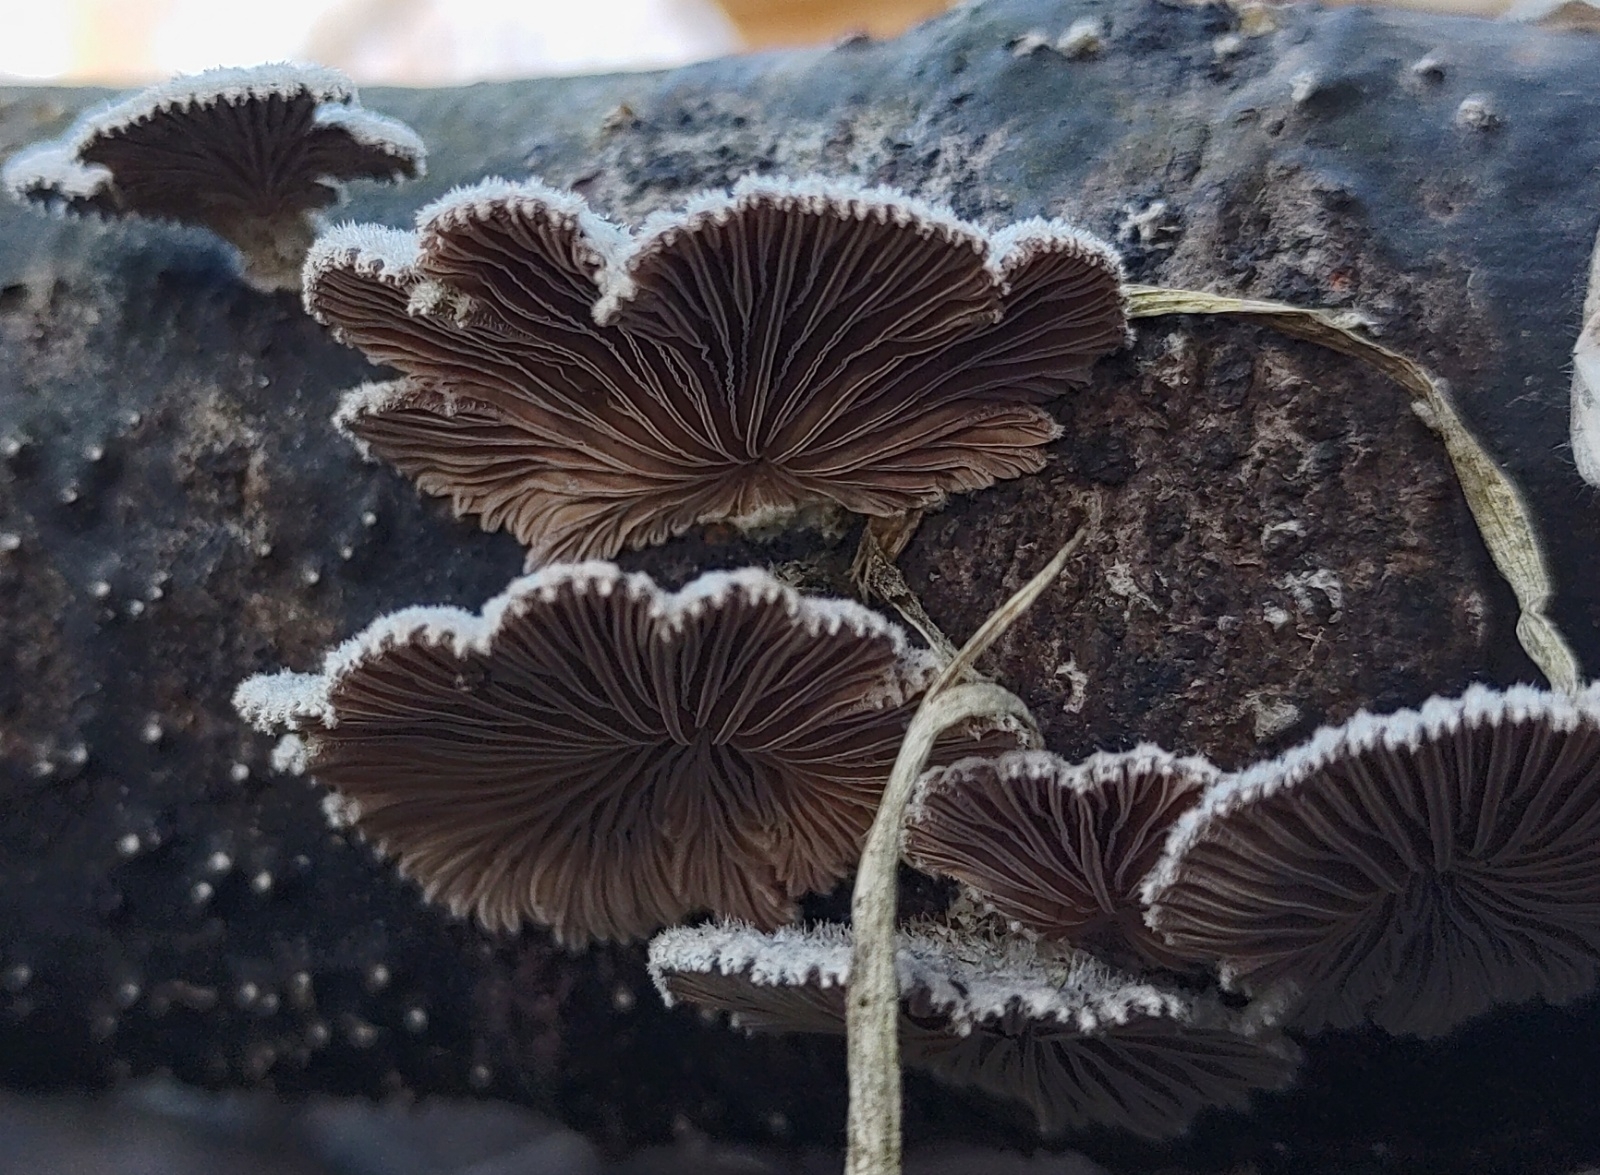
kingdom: Fungi
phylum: Basidiomycota
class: Agaricomycetes
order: Agaricales
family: Schizophyllaceae
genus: Schizophyllum
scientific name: Schizophyllum commune
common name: Common porecrust
